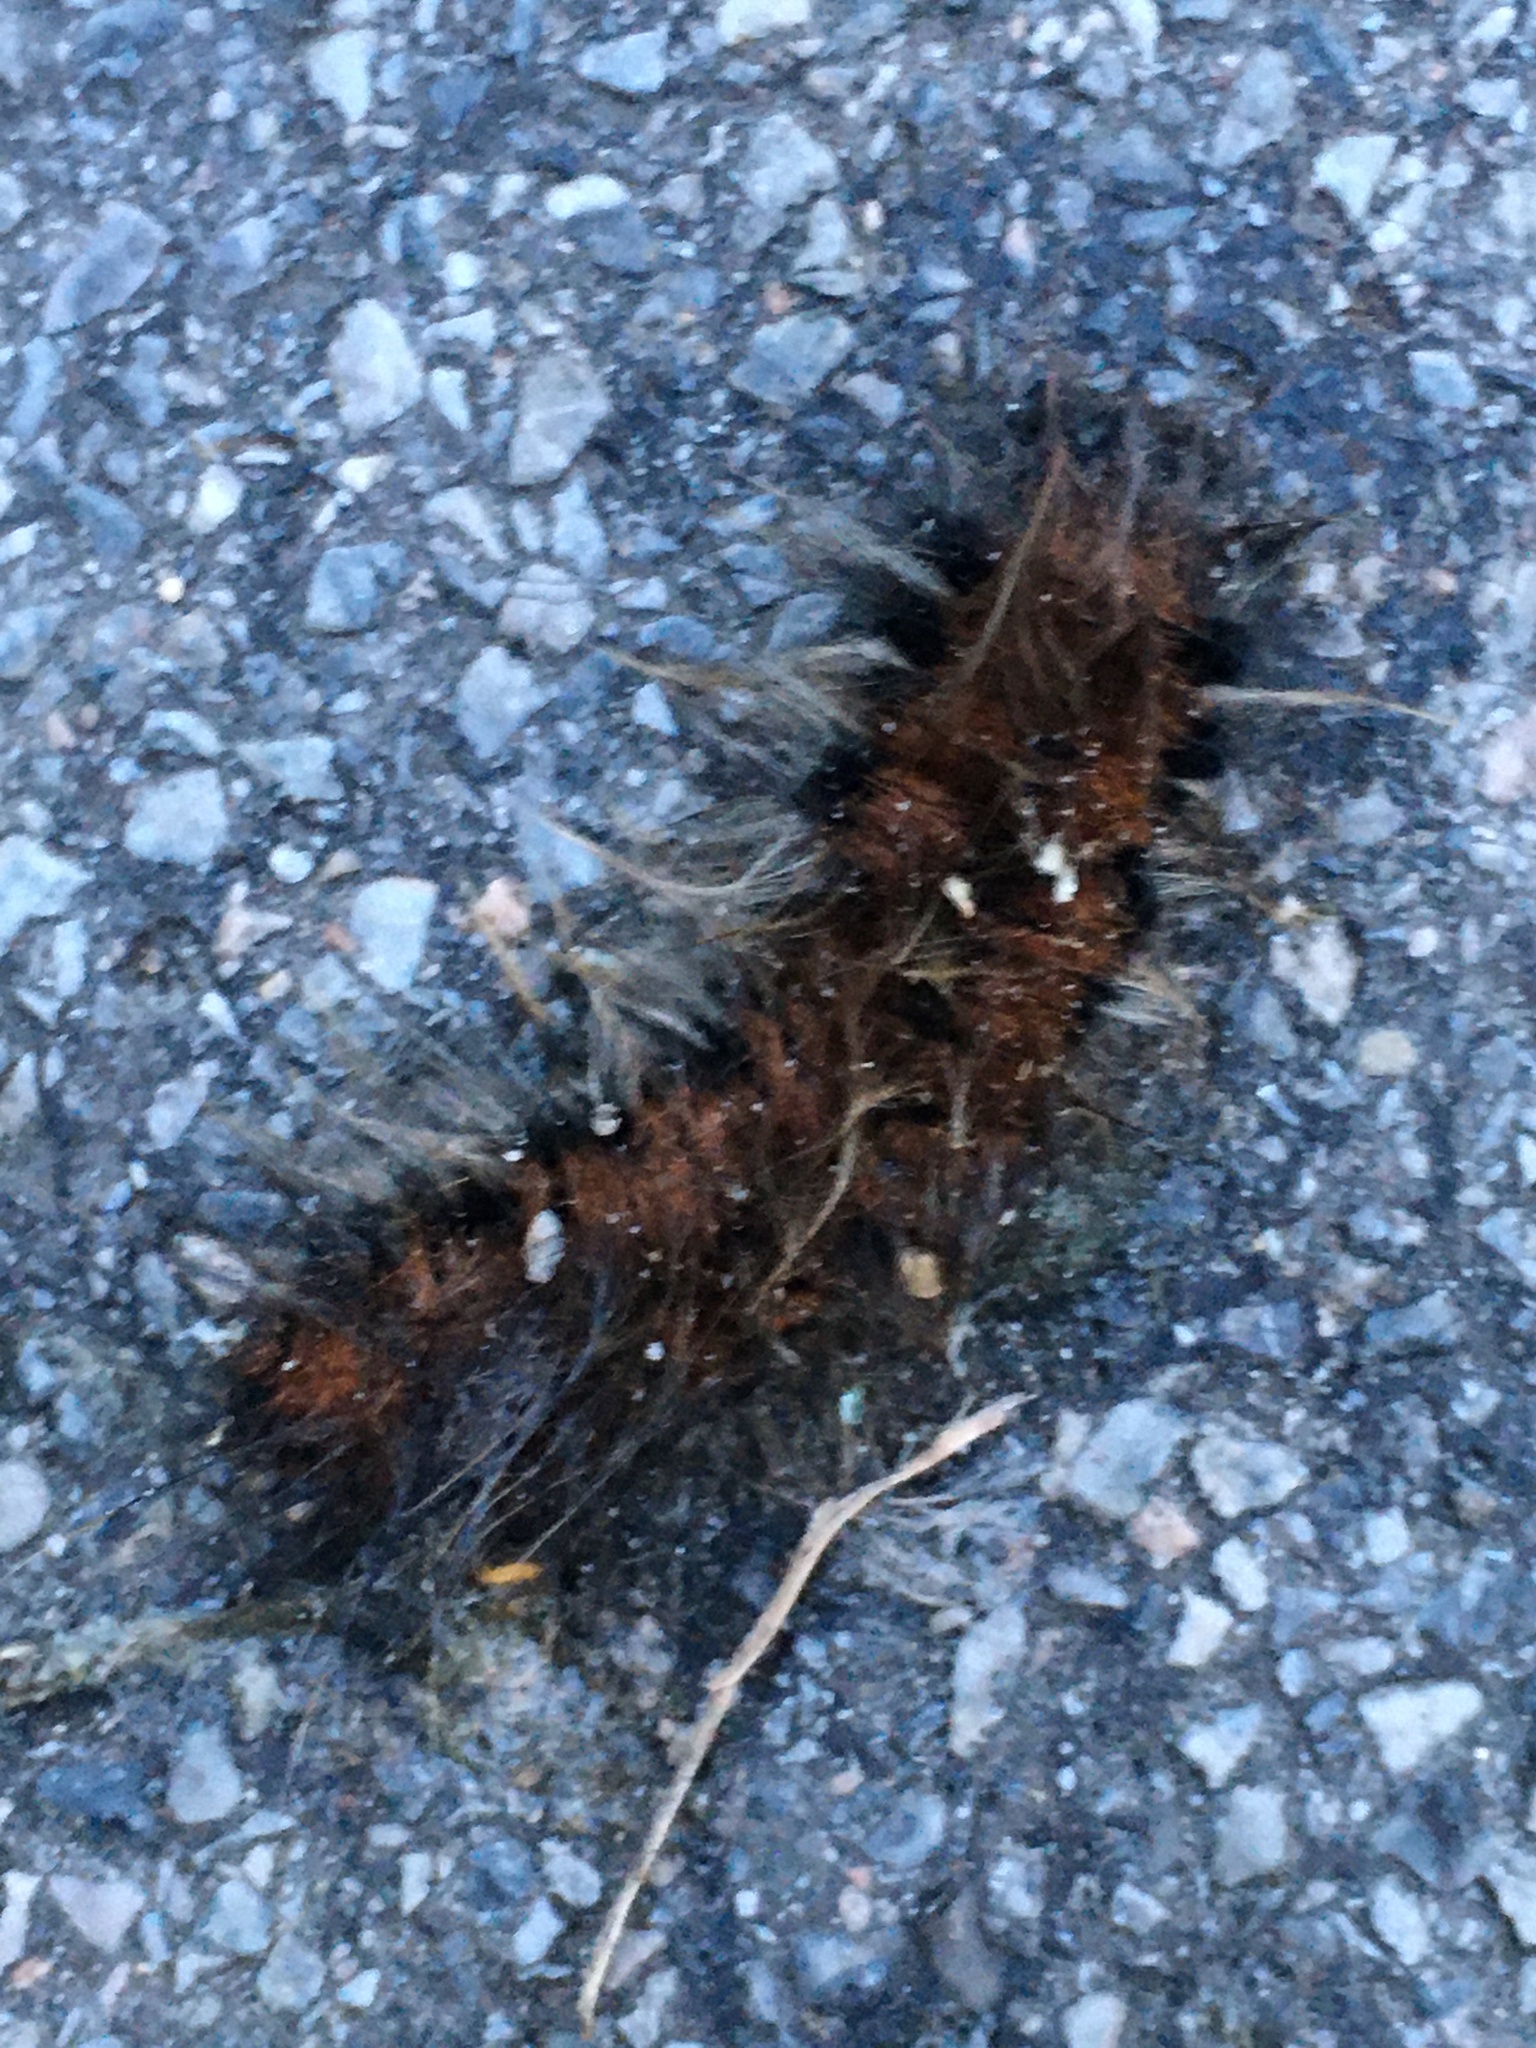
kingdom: Animalia
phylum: Arthropoda
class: Insecta
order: Lepidoptera
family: Lasiocampidae
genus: Macrothylacia
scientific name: Macrothylacia rubi
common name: Fox moth
